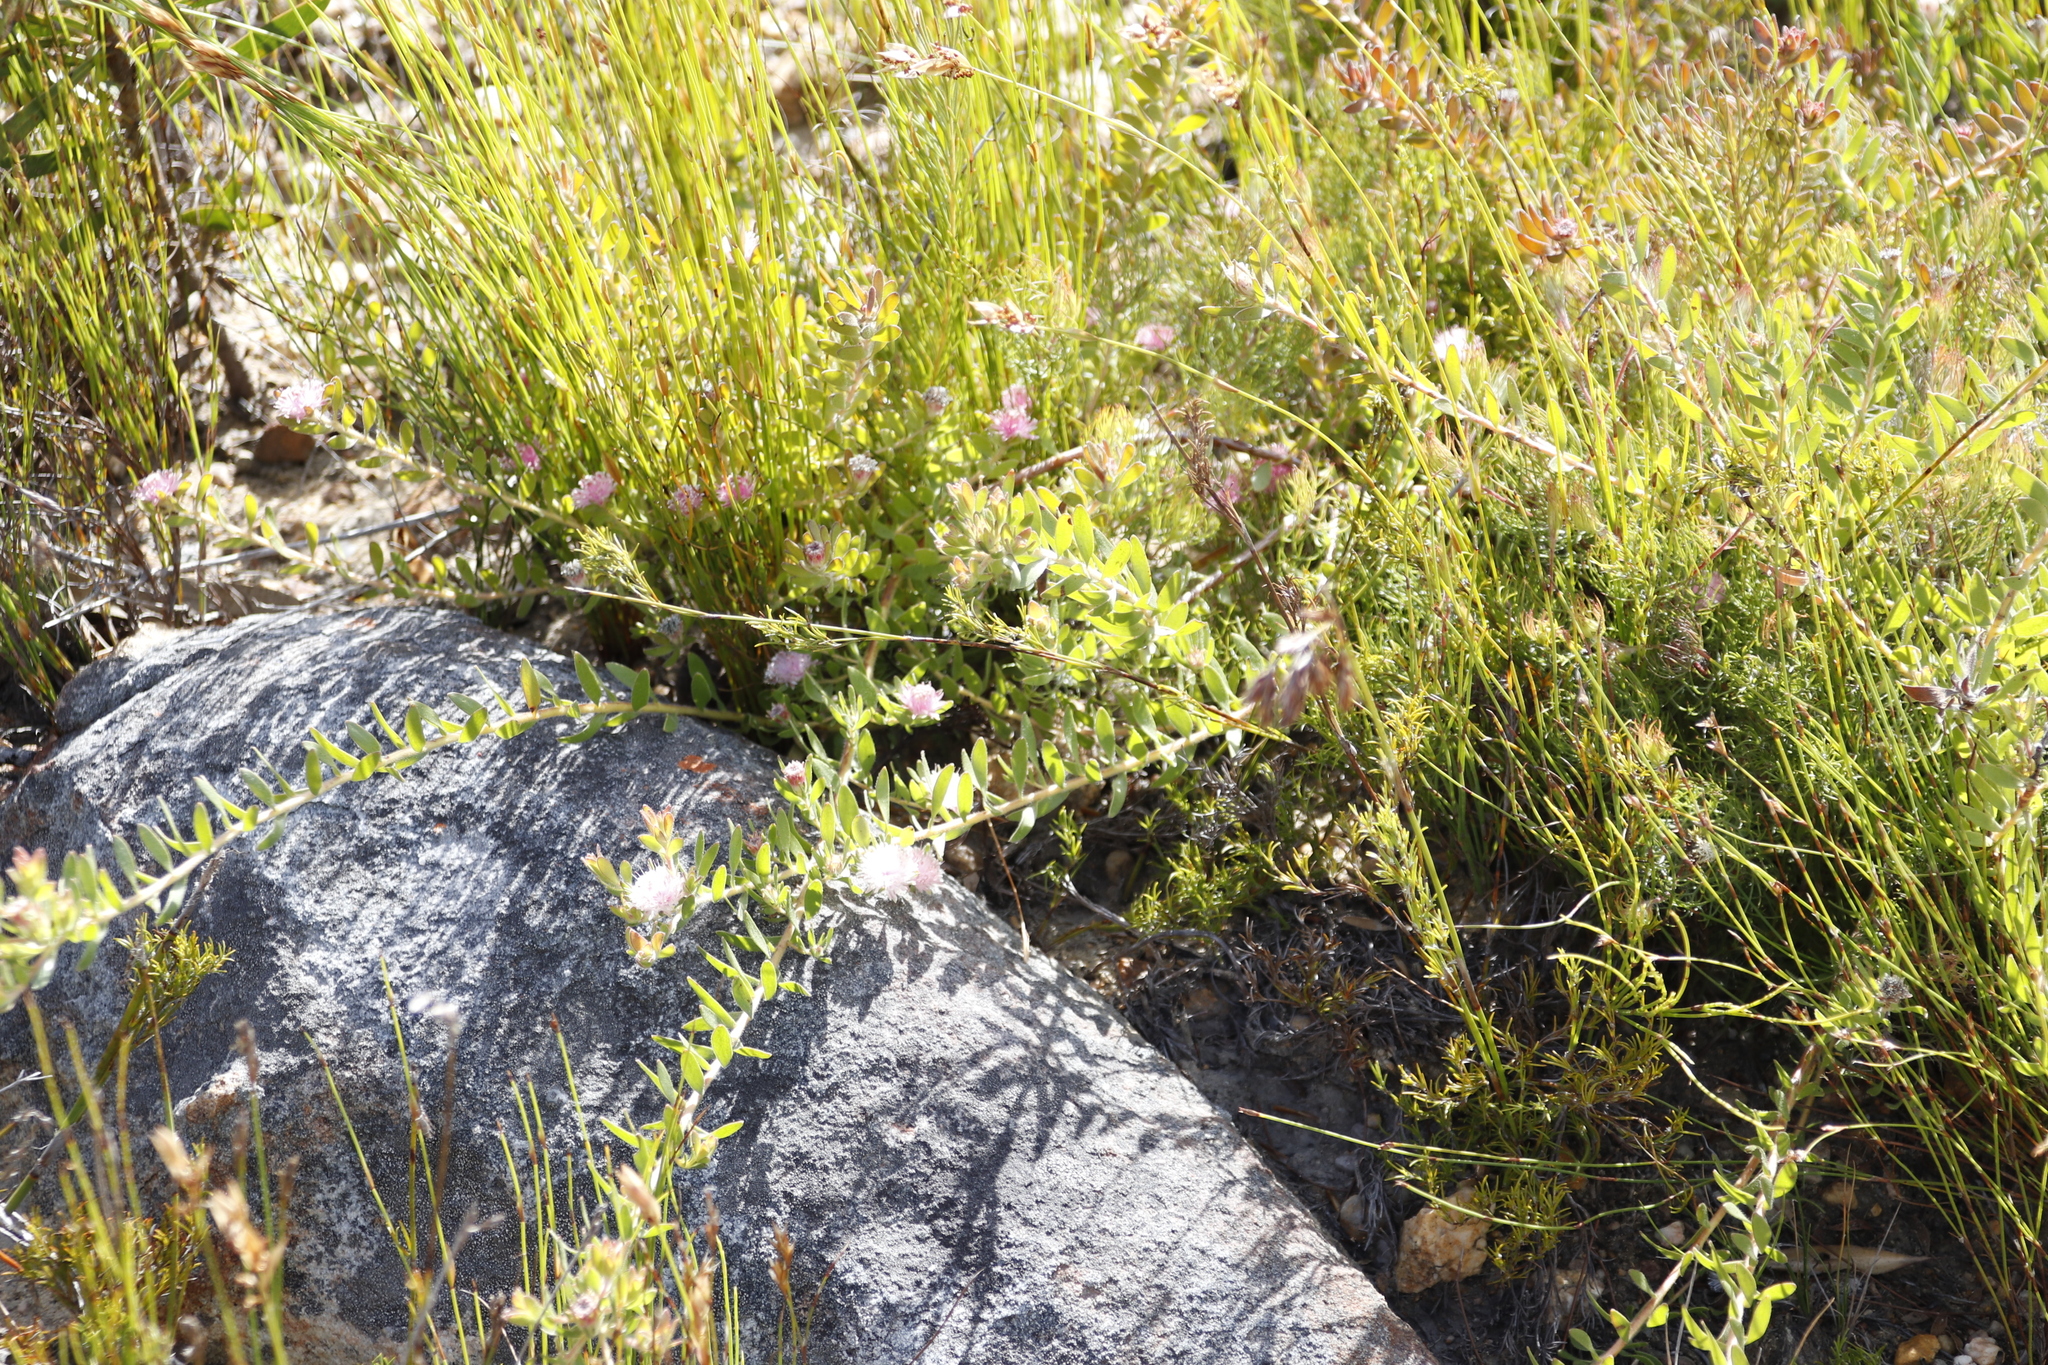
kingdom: Plantae
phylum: Tracheophyta
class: Magnoliopsida
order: Proteales
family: Proteaceae
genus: Diastella
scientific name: Diastella divaricata
